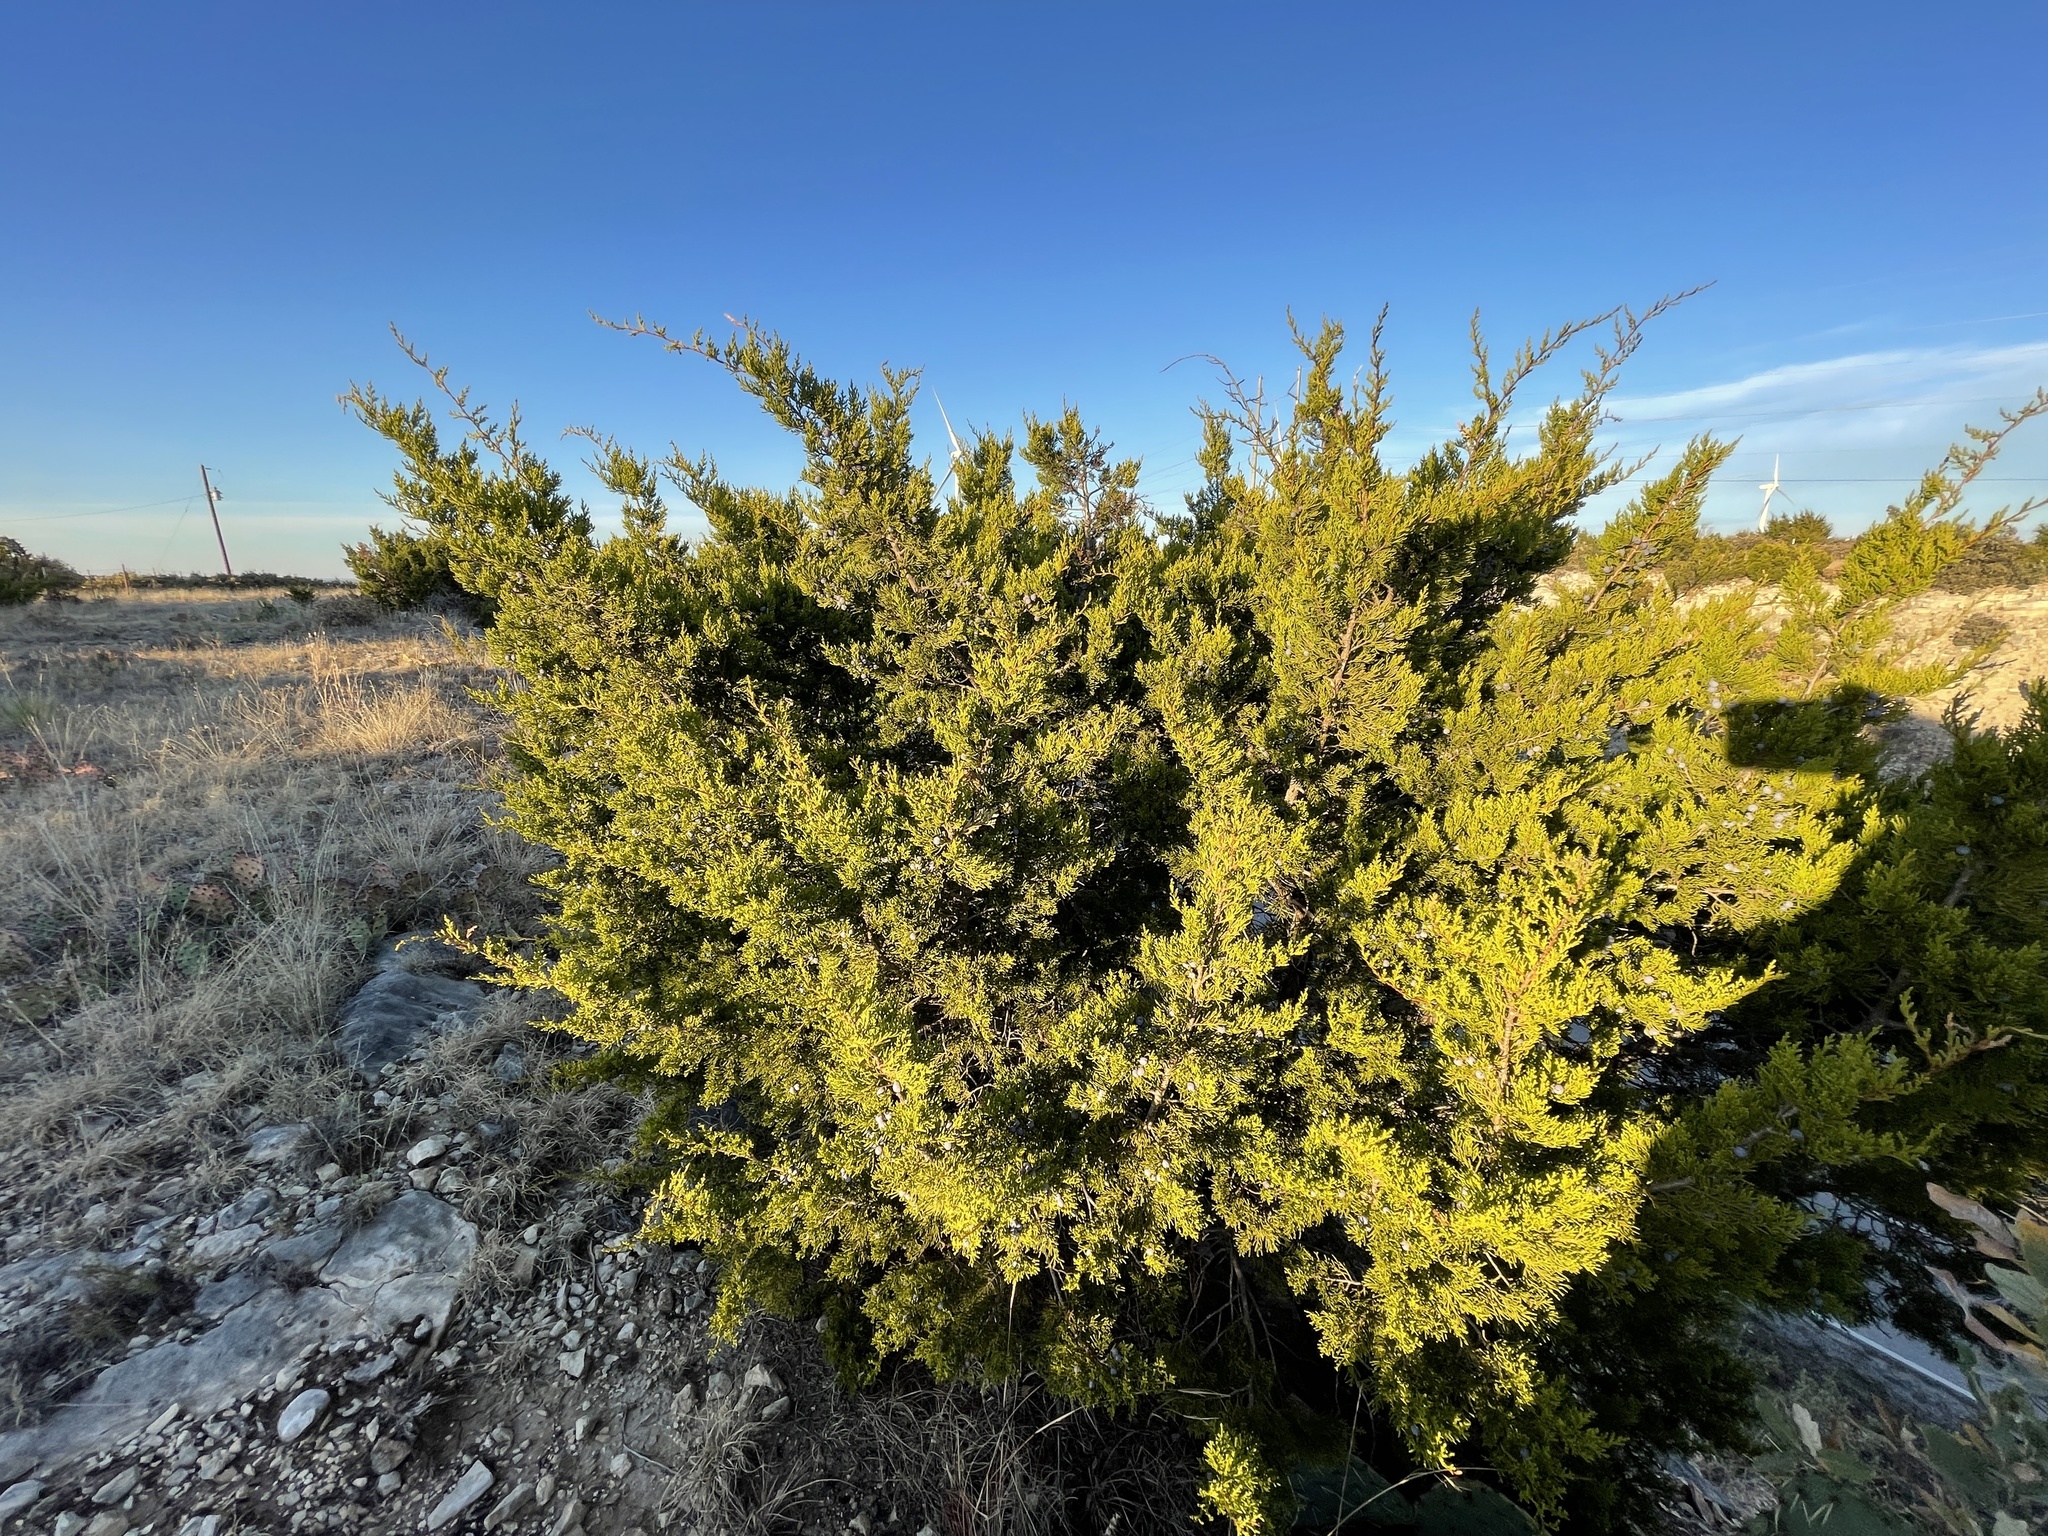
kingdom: Plantae
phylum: Tracheophyta
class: Pinopsida
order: Pinales
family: Cupressaceae
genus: Juniperus
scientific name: Juniperus ashei
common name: Mexican juniper
